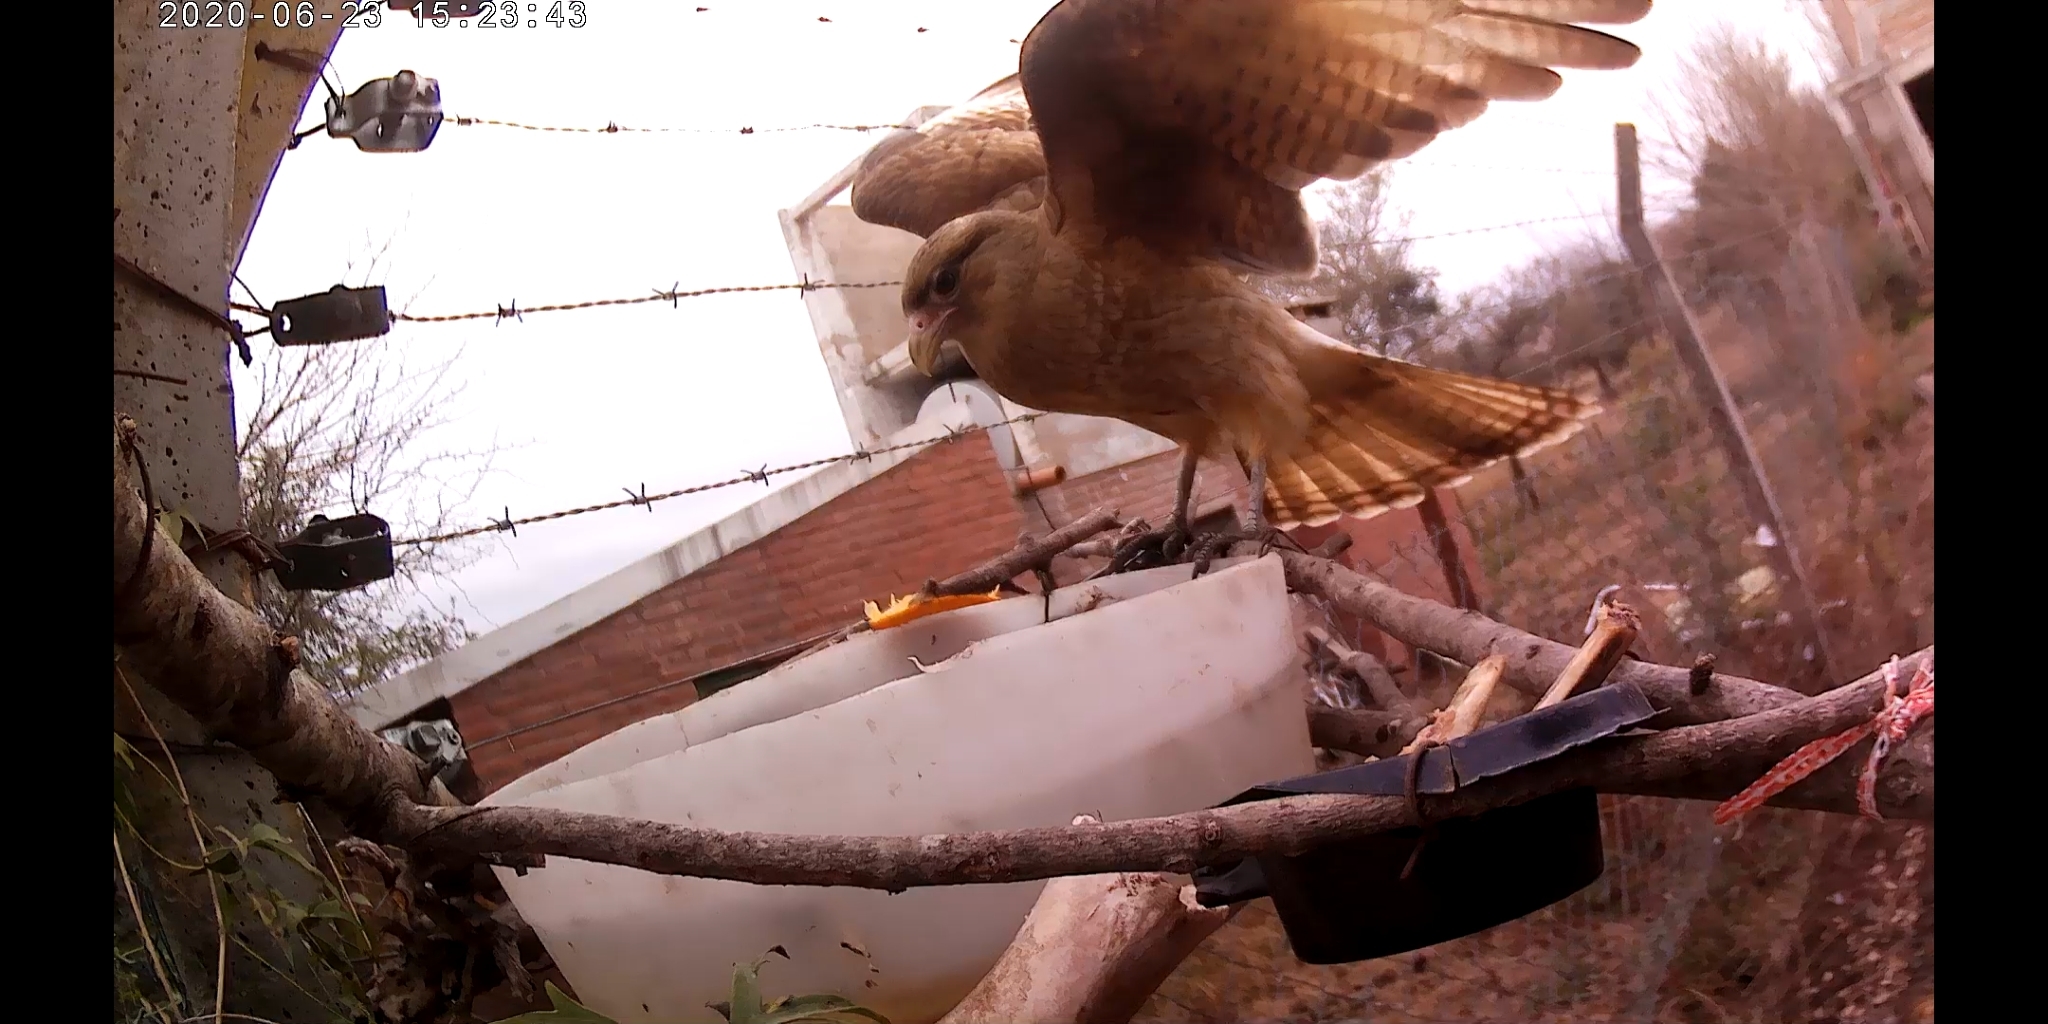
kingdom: Animalia
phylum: Chordata
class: Aves
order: Falconiformes
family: Falconidae
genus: Daptrius
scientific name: Daptrius
